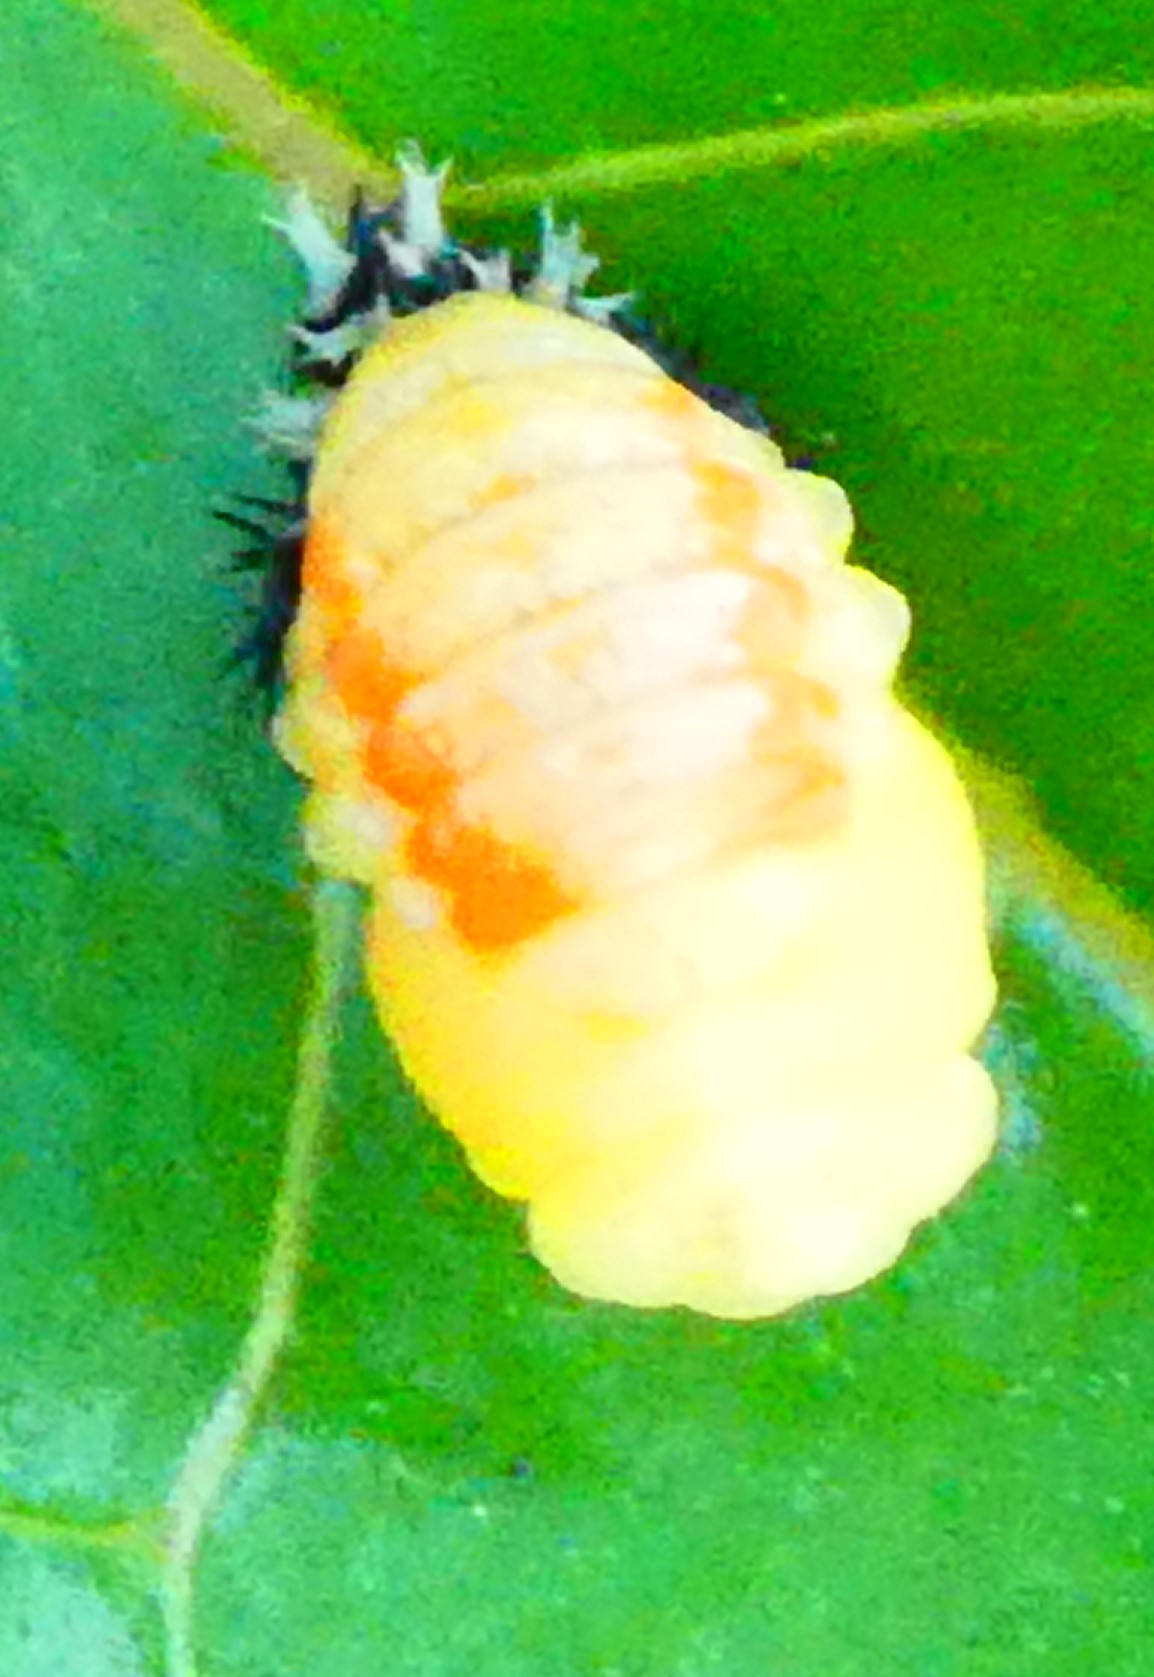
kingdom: Animalia
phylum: Arthropoda
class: Insecta
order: Coleoptera
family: Coccinellidae
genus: Harmonia
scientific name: Harmonia axyridis
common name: Harlequin ladybird
